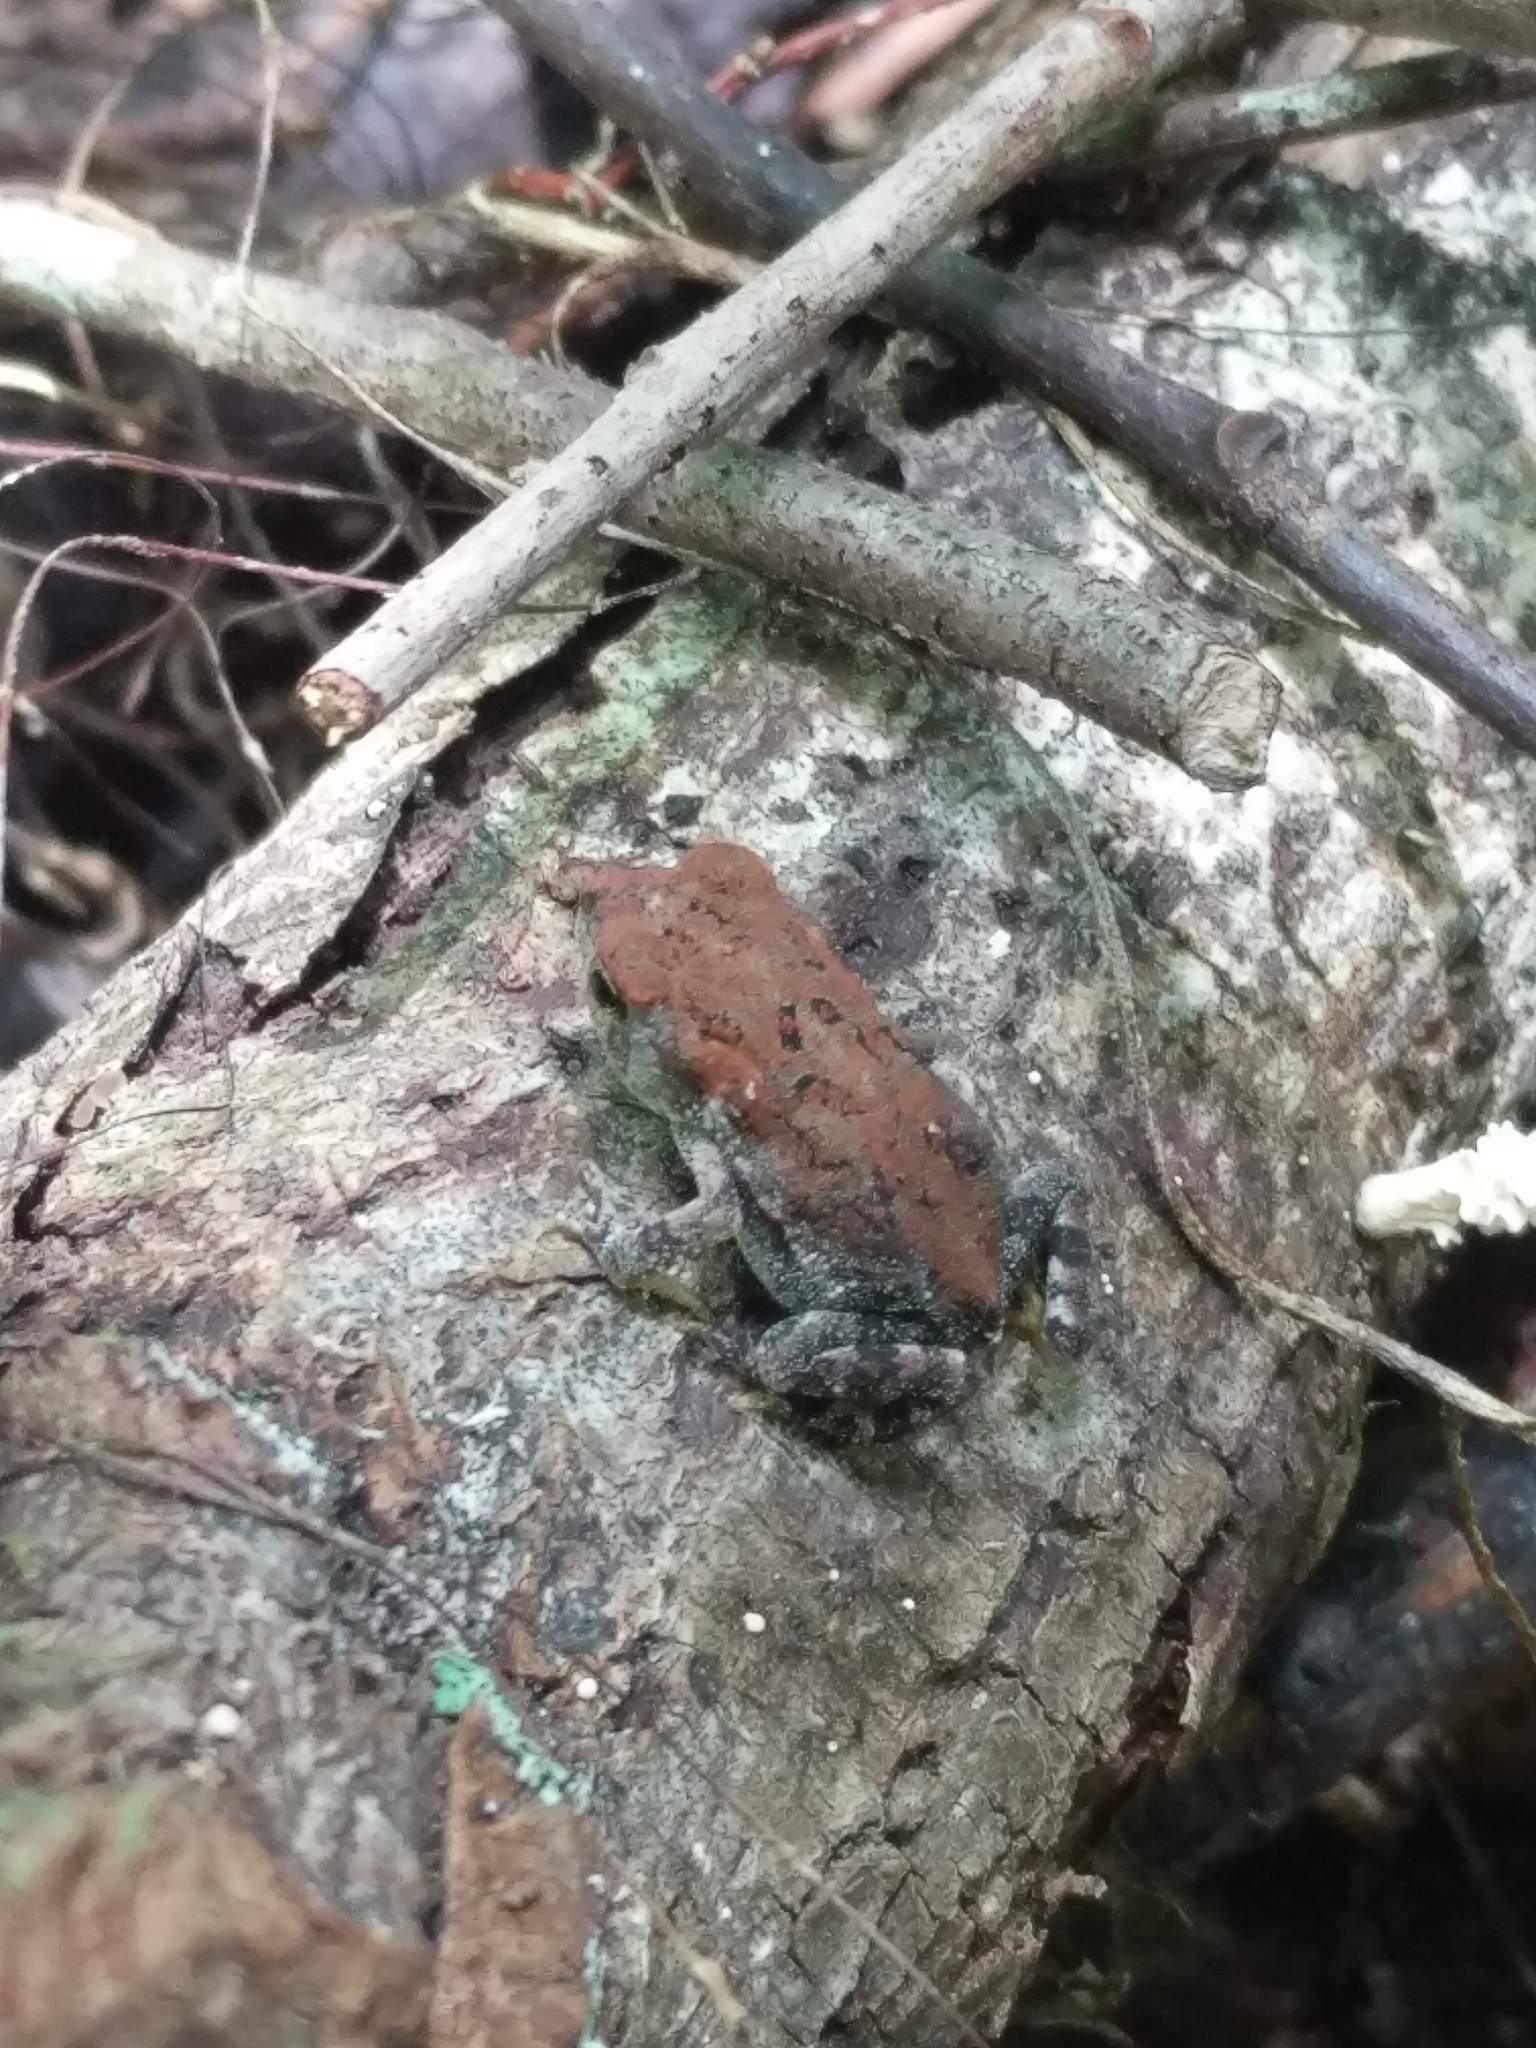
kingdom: Animalia
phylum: Chordata
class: Amphibia
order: Anura
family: Bufonidae
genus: Anaxyrus
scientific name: Anaxyrus terrestris
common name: Southern toad
